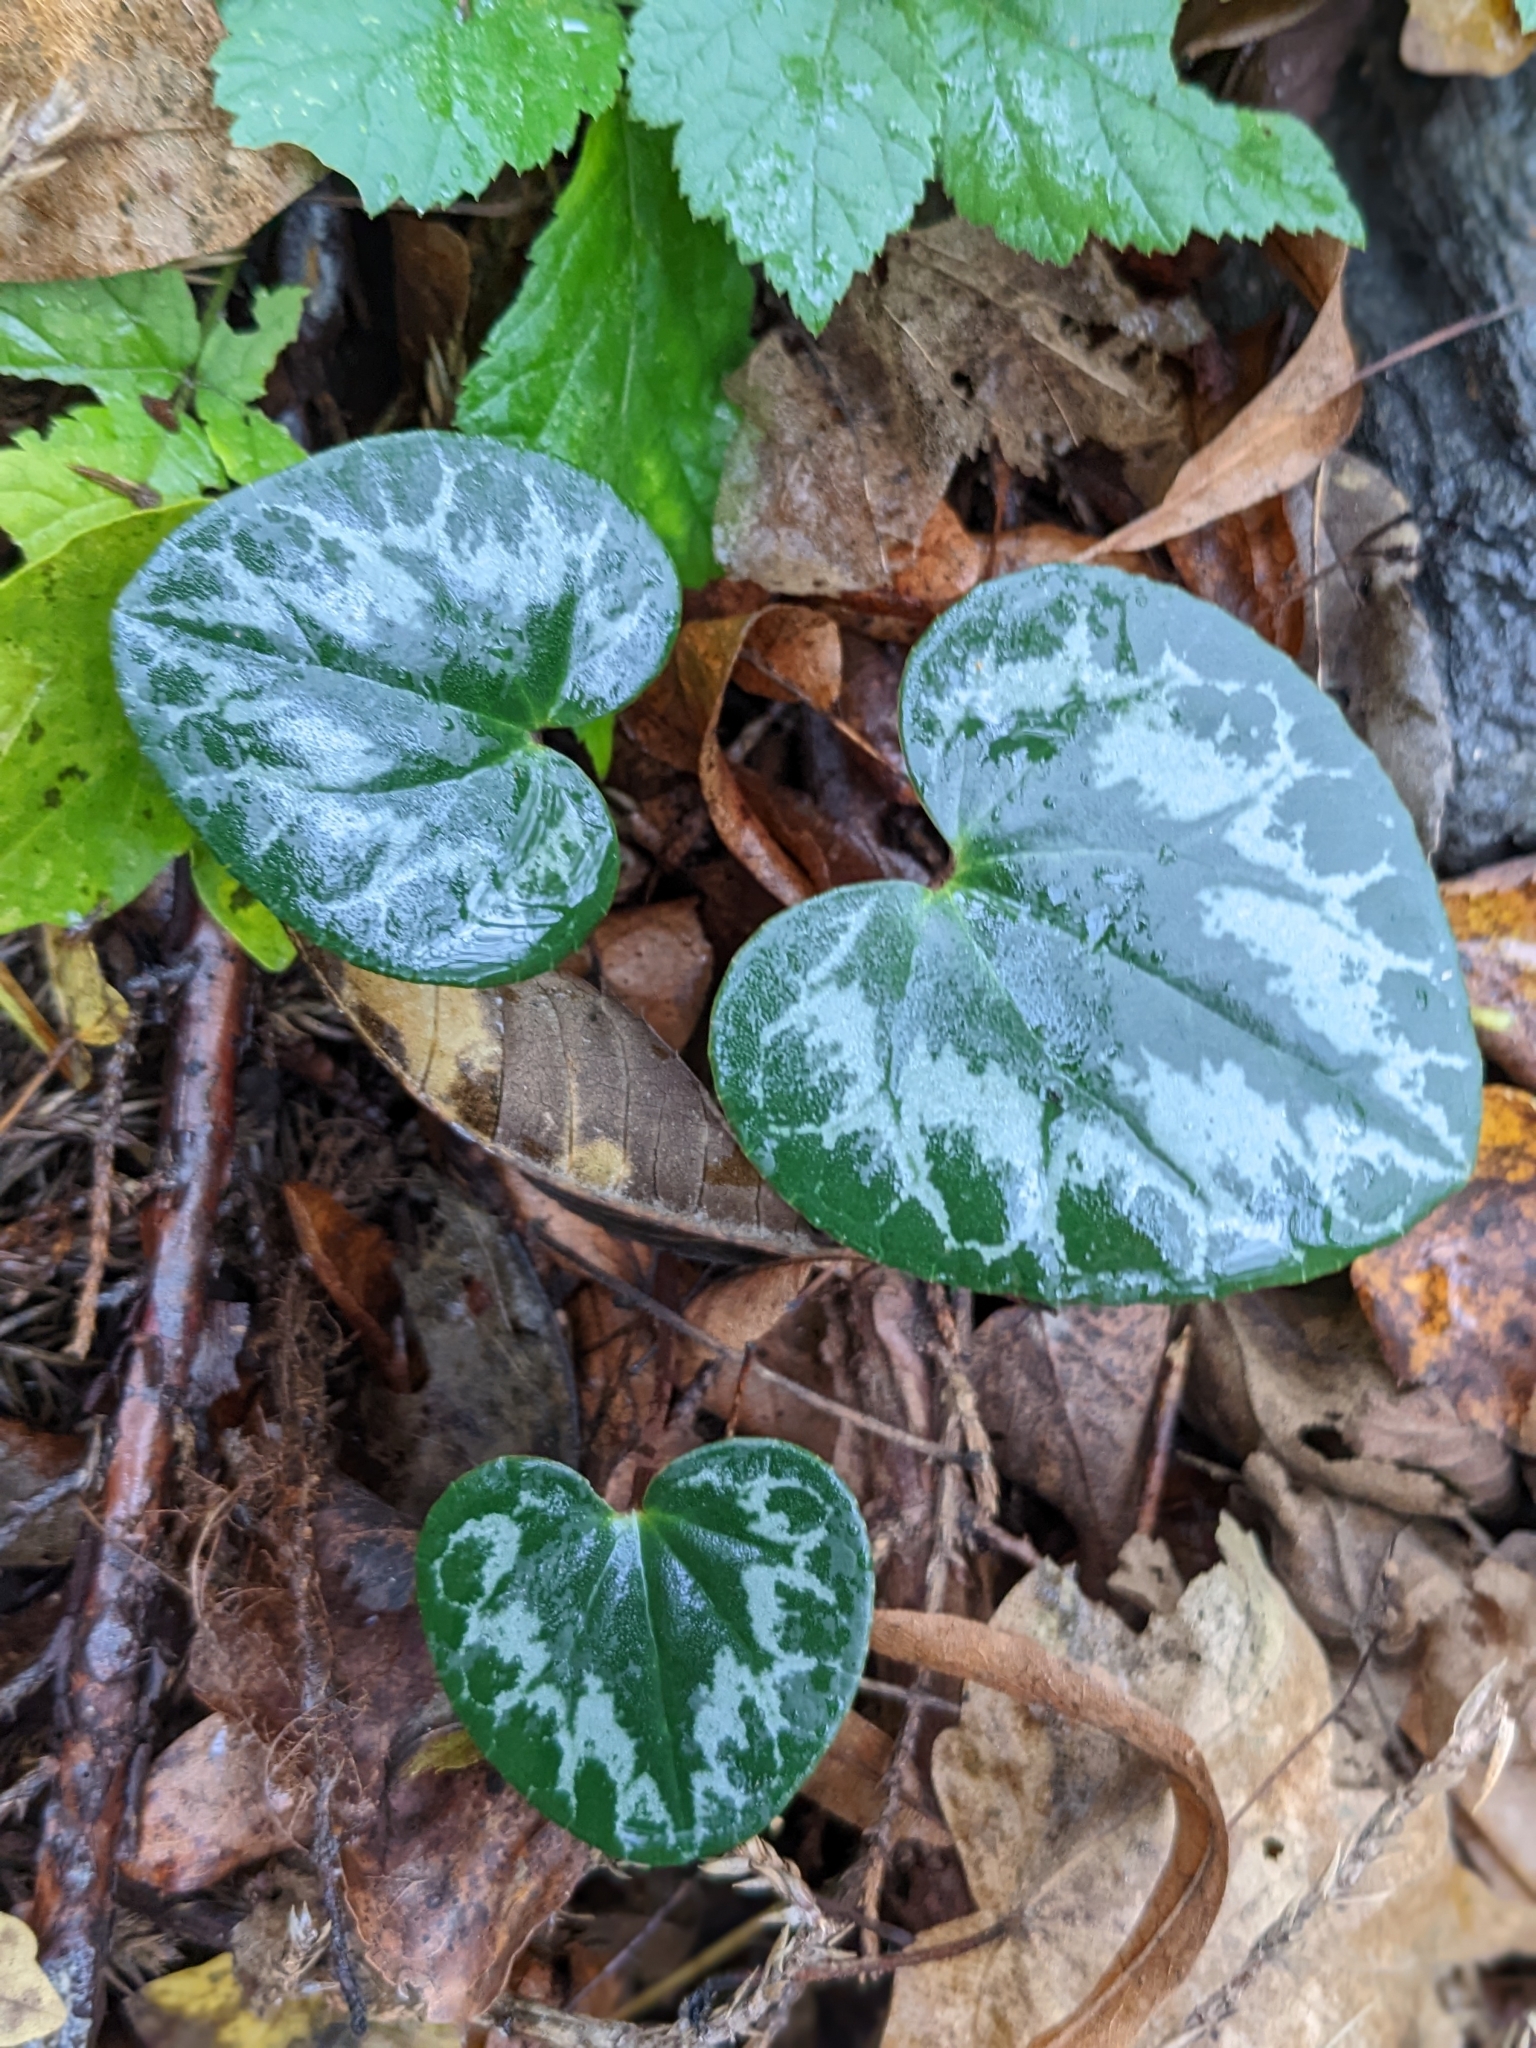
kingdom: Plantae
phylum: Tracheophyta
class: Magnoliopsida
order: Ericales
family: Primulaceae
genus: Cyclamen
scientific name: Cyclamen purpurascens
